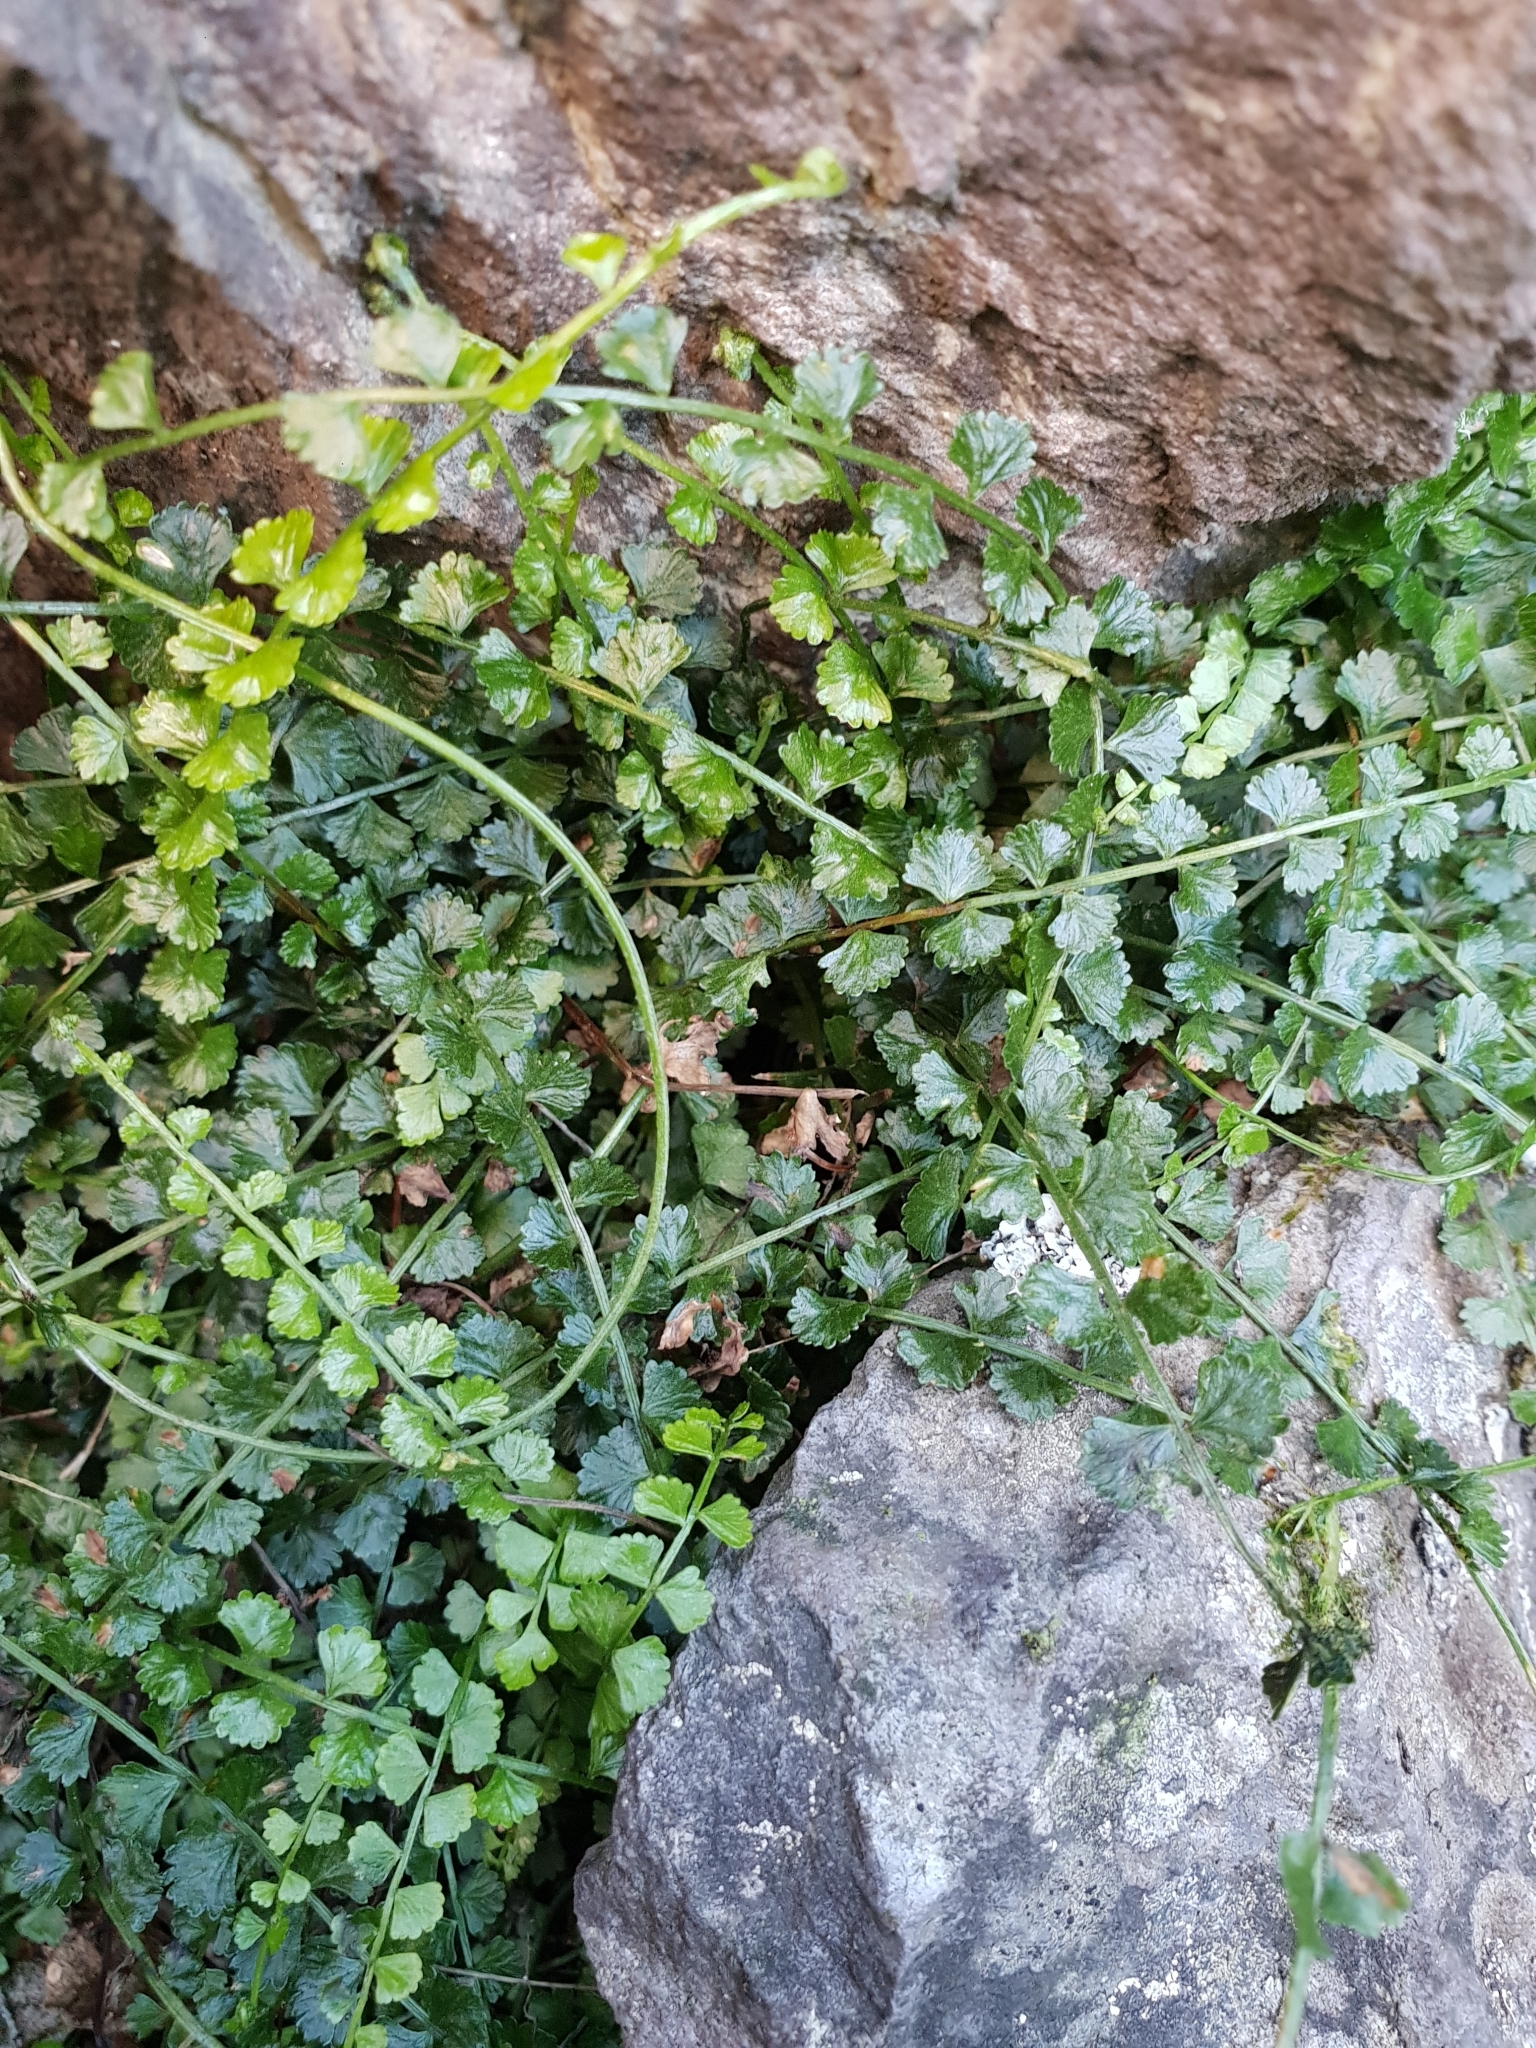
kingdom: Plantae
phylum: Tracheophyta
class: Polypodiopsida
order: Polypodiales
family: Aspleniaceae
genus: Asplenium
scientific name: Asplenium flabellifolium
